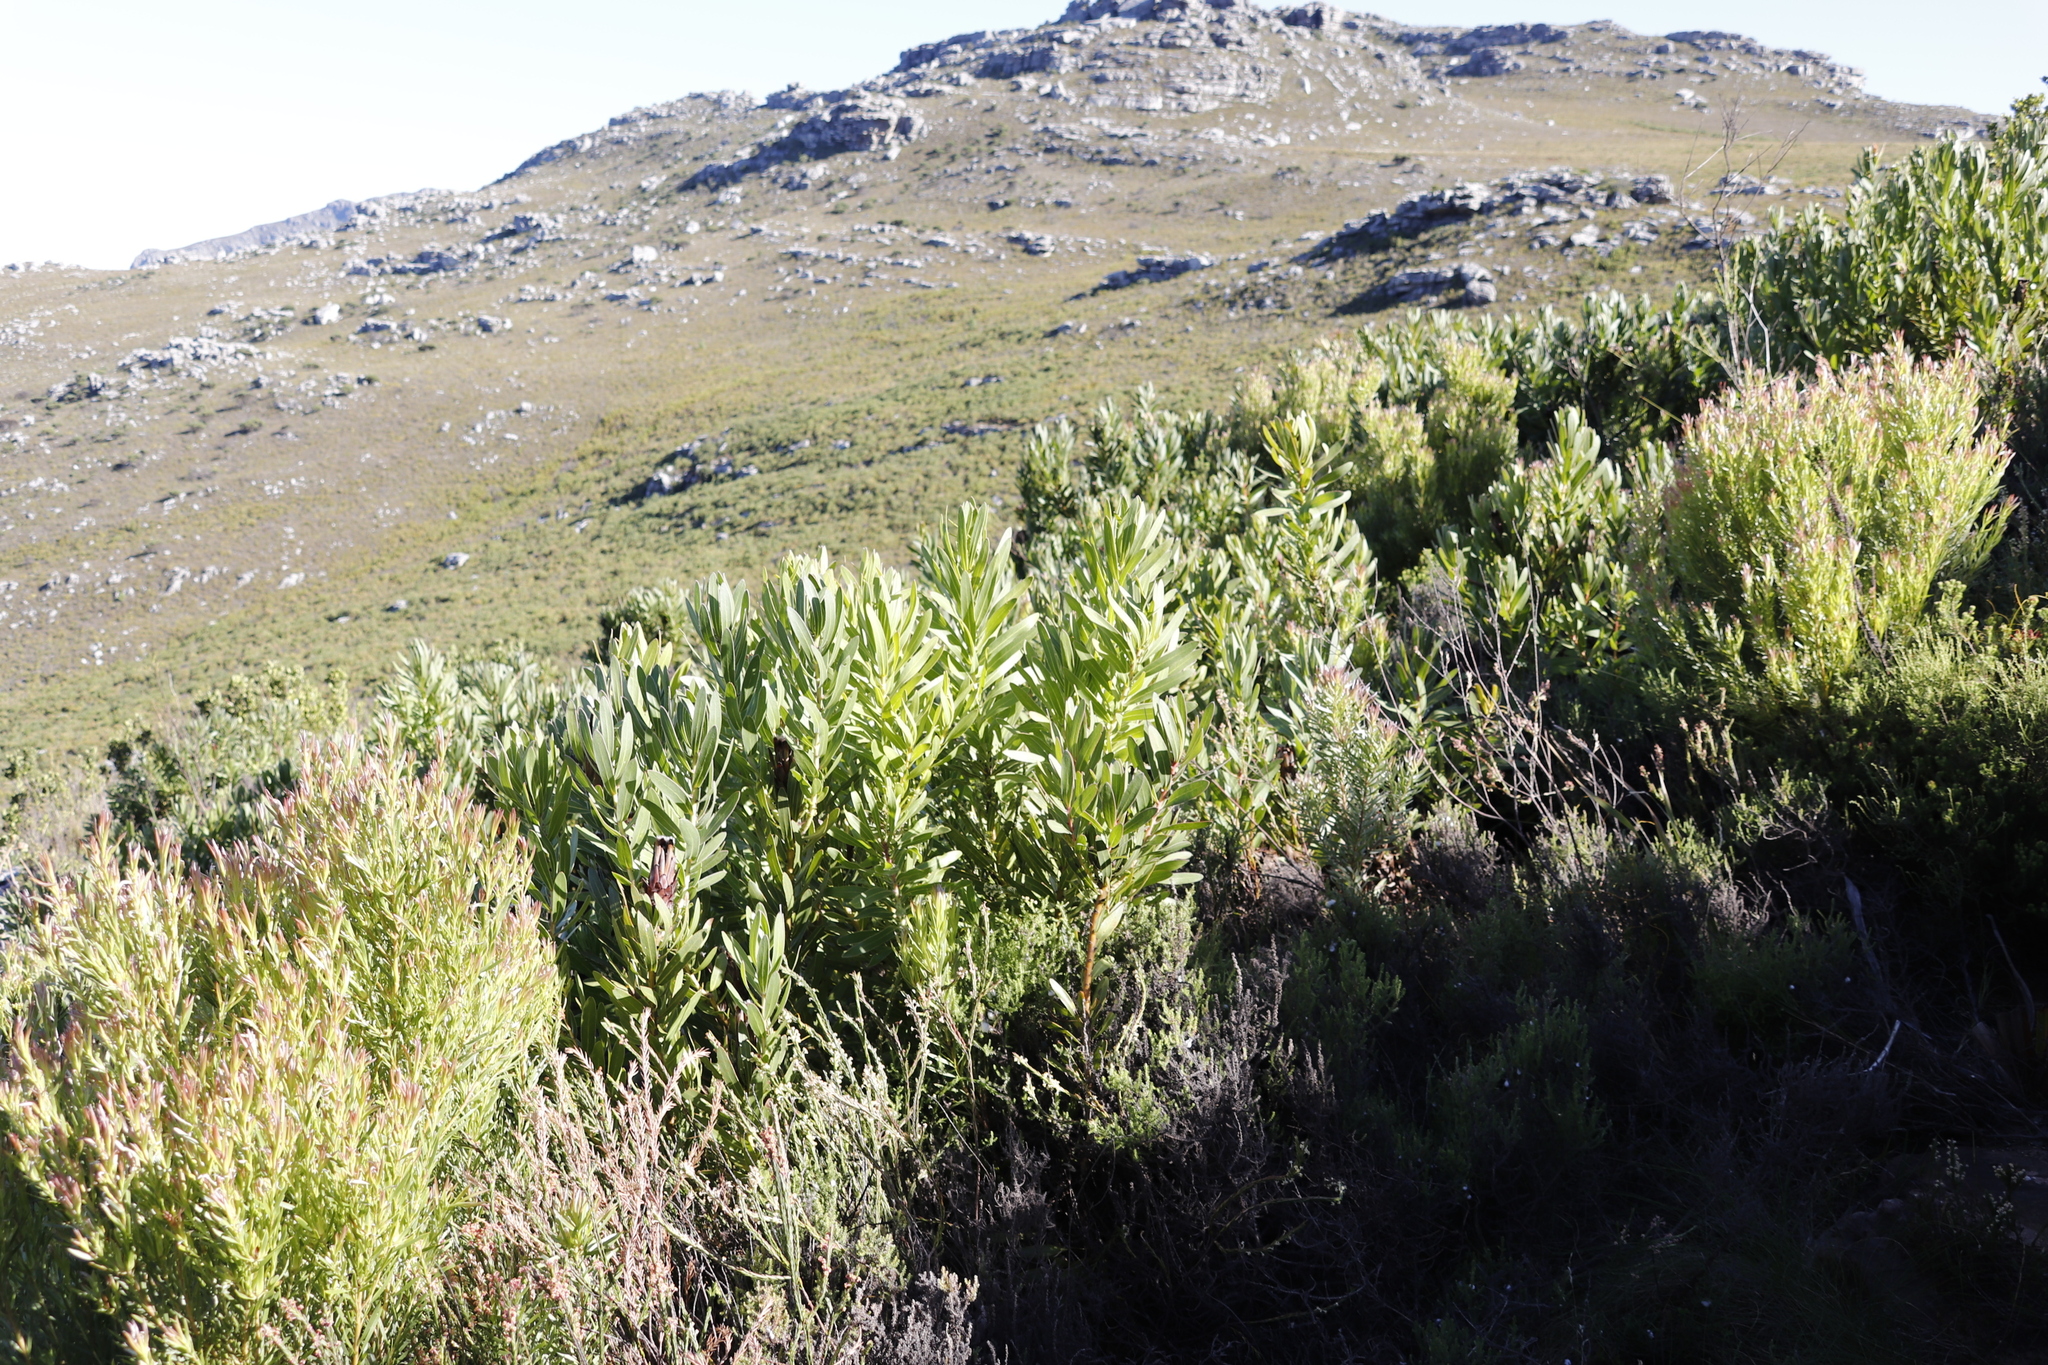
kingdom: Plantae
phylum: Tracheophyta
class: Magnoliopsida
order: Proteales
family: Proteaceae
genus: Protea
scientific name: Protea lepidocarpodendron
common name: Black-bearded protea
